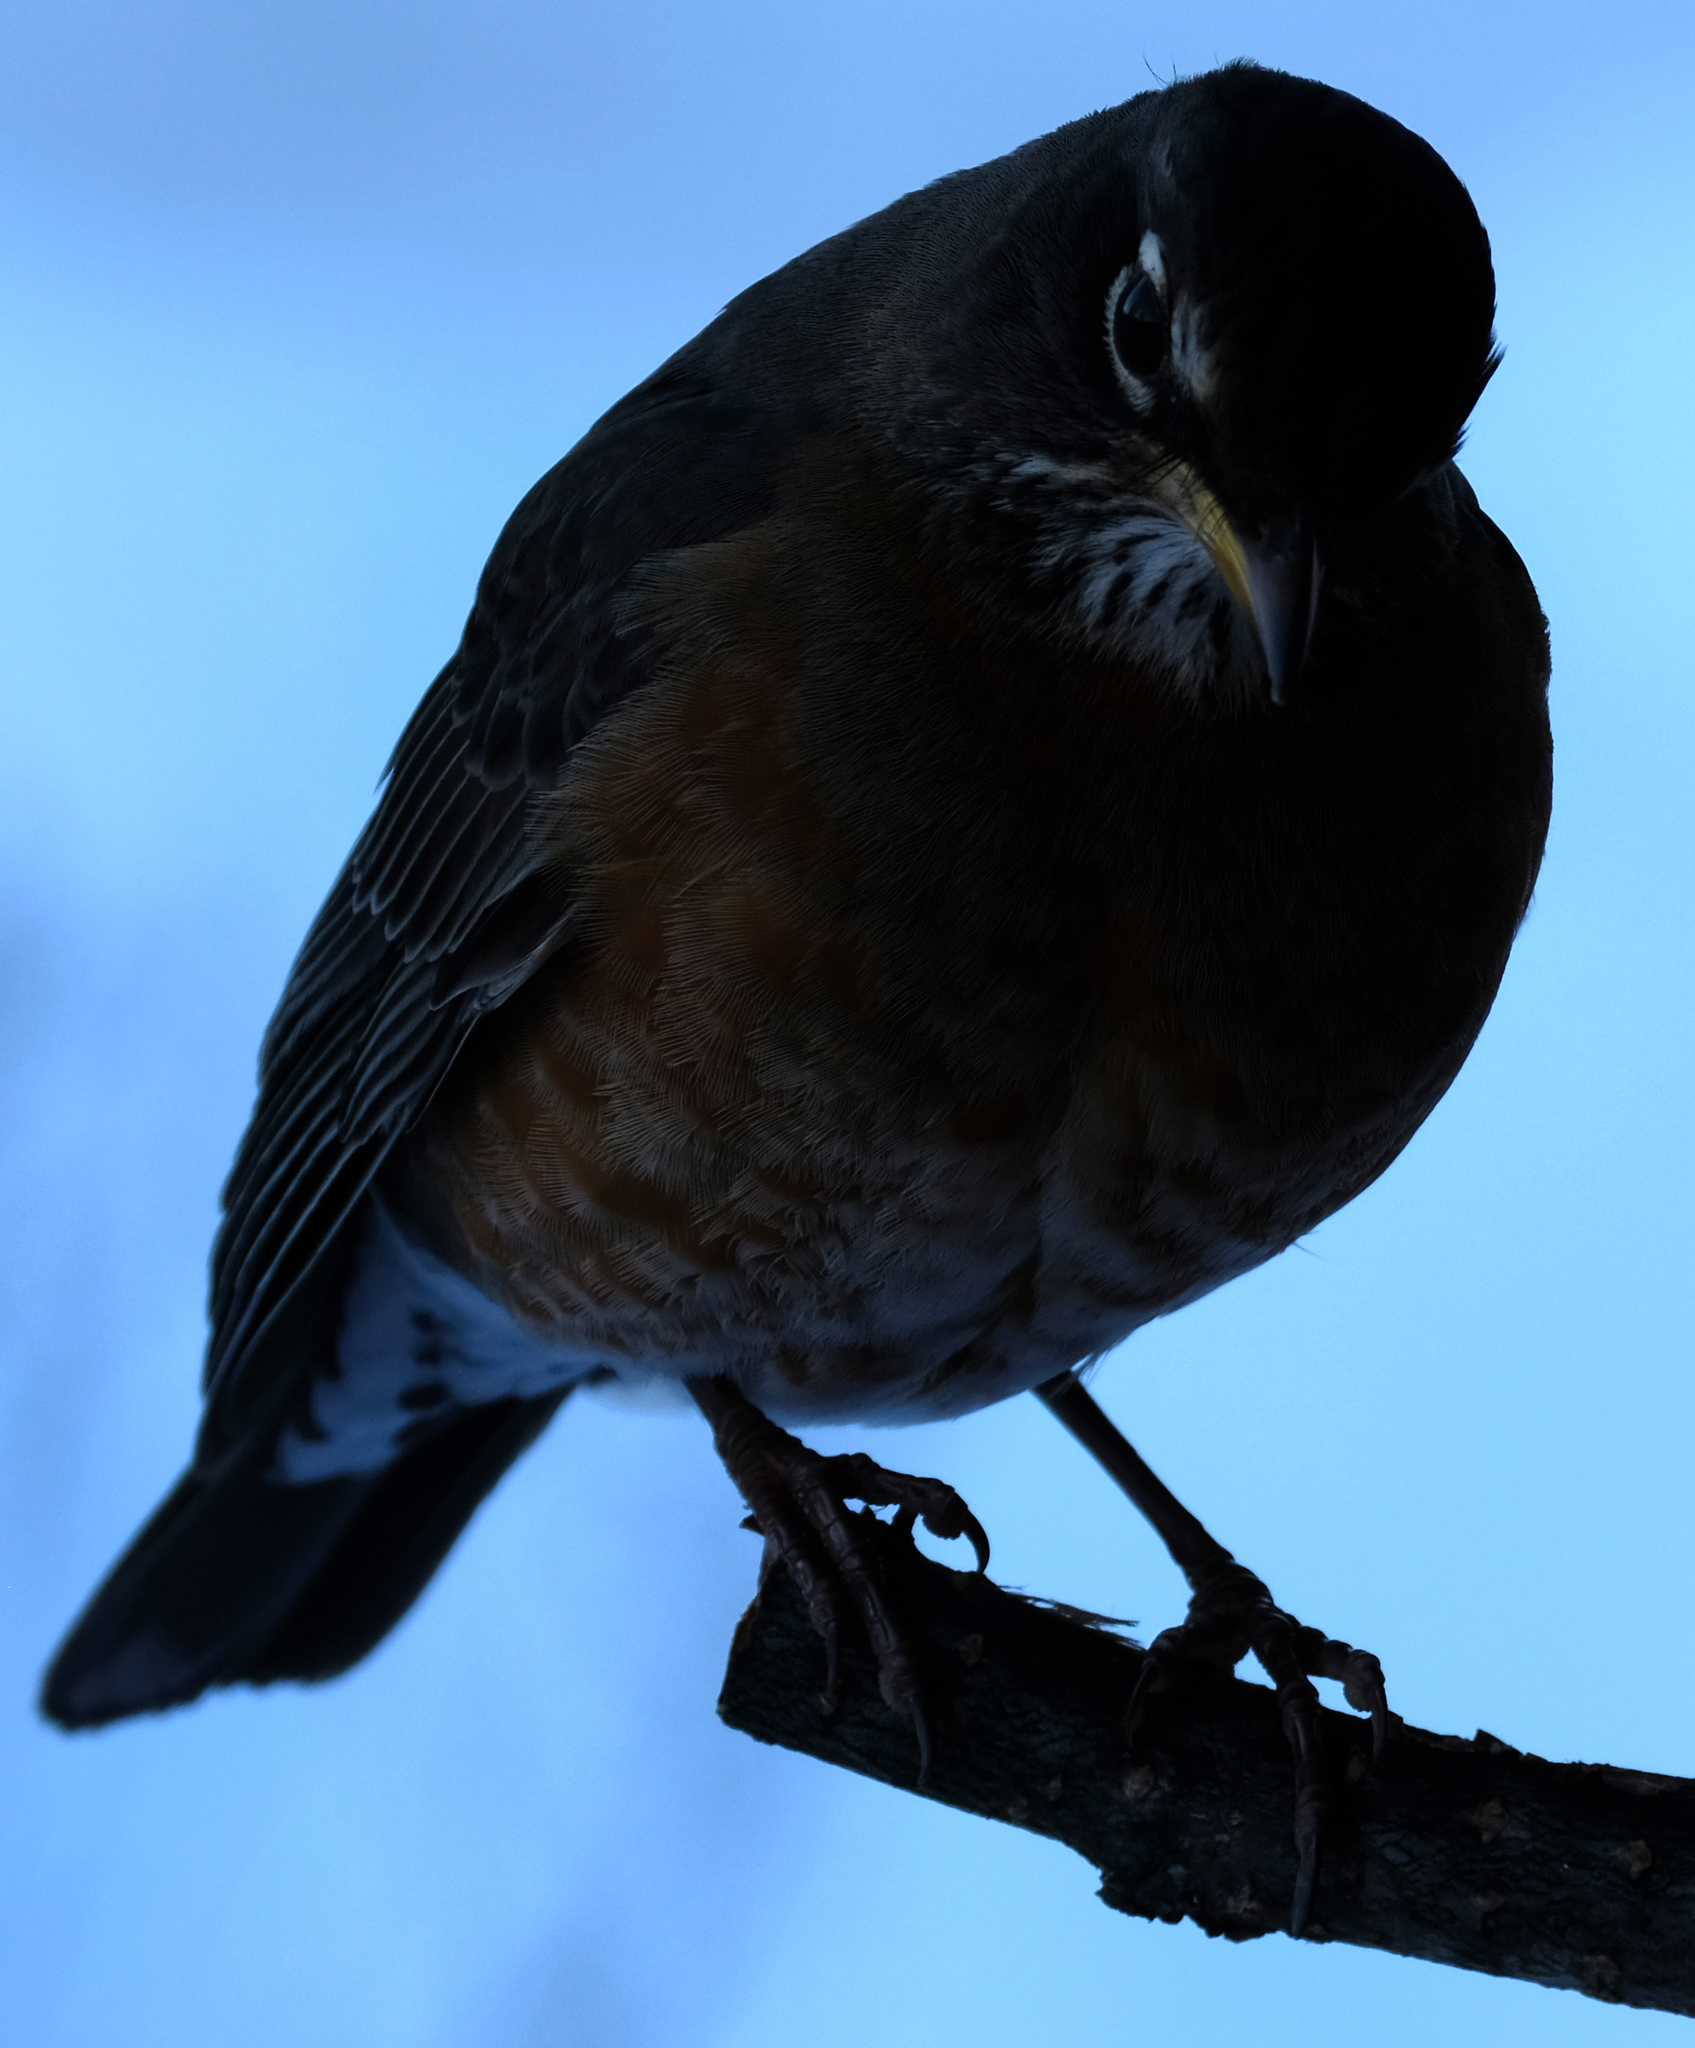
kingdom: Animalia
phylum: Chordata
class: Aves
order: Passeriformes
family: Turdidae
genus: Turdus
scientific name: Turdus migratorius
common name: American robin
